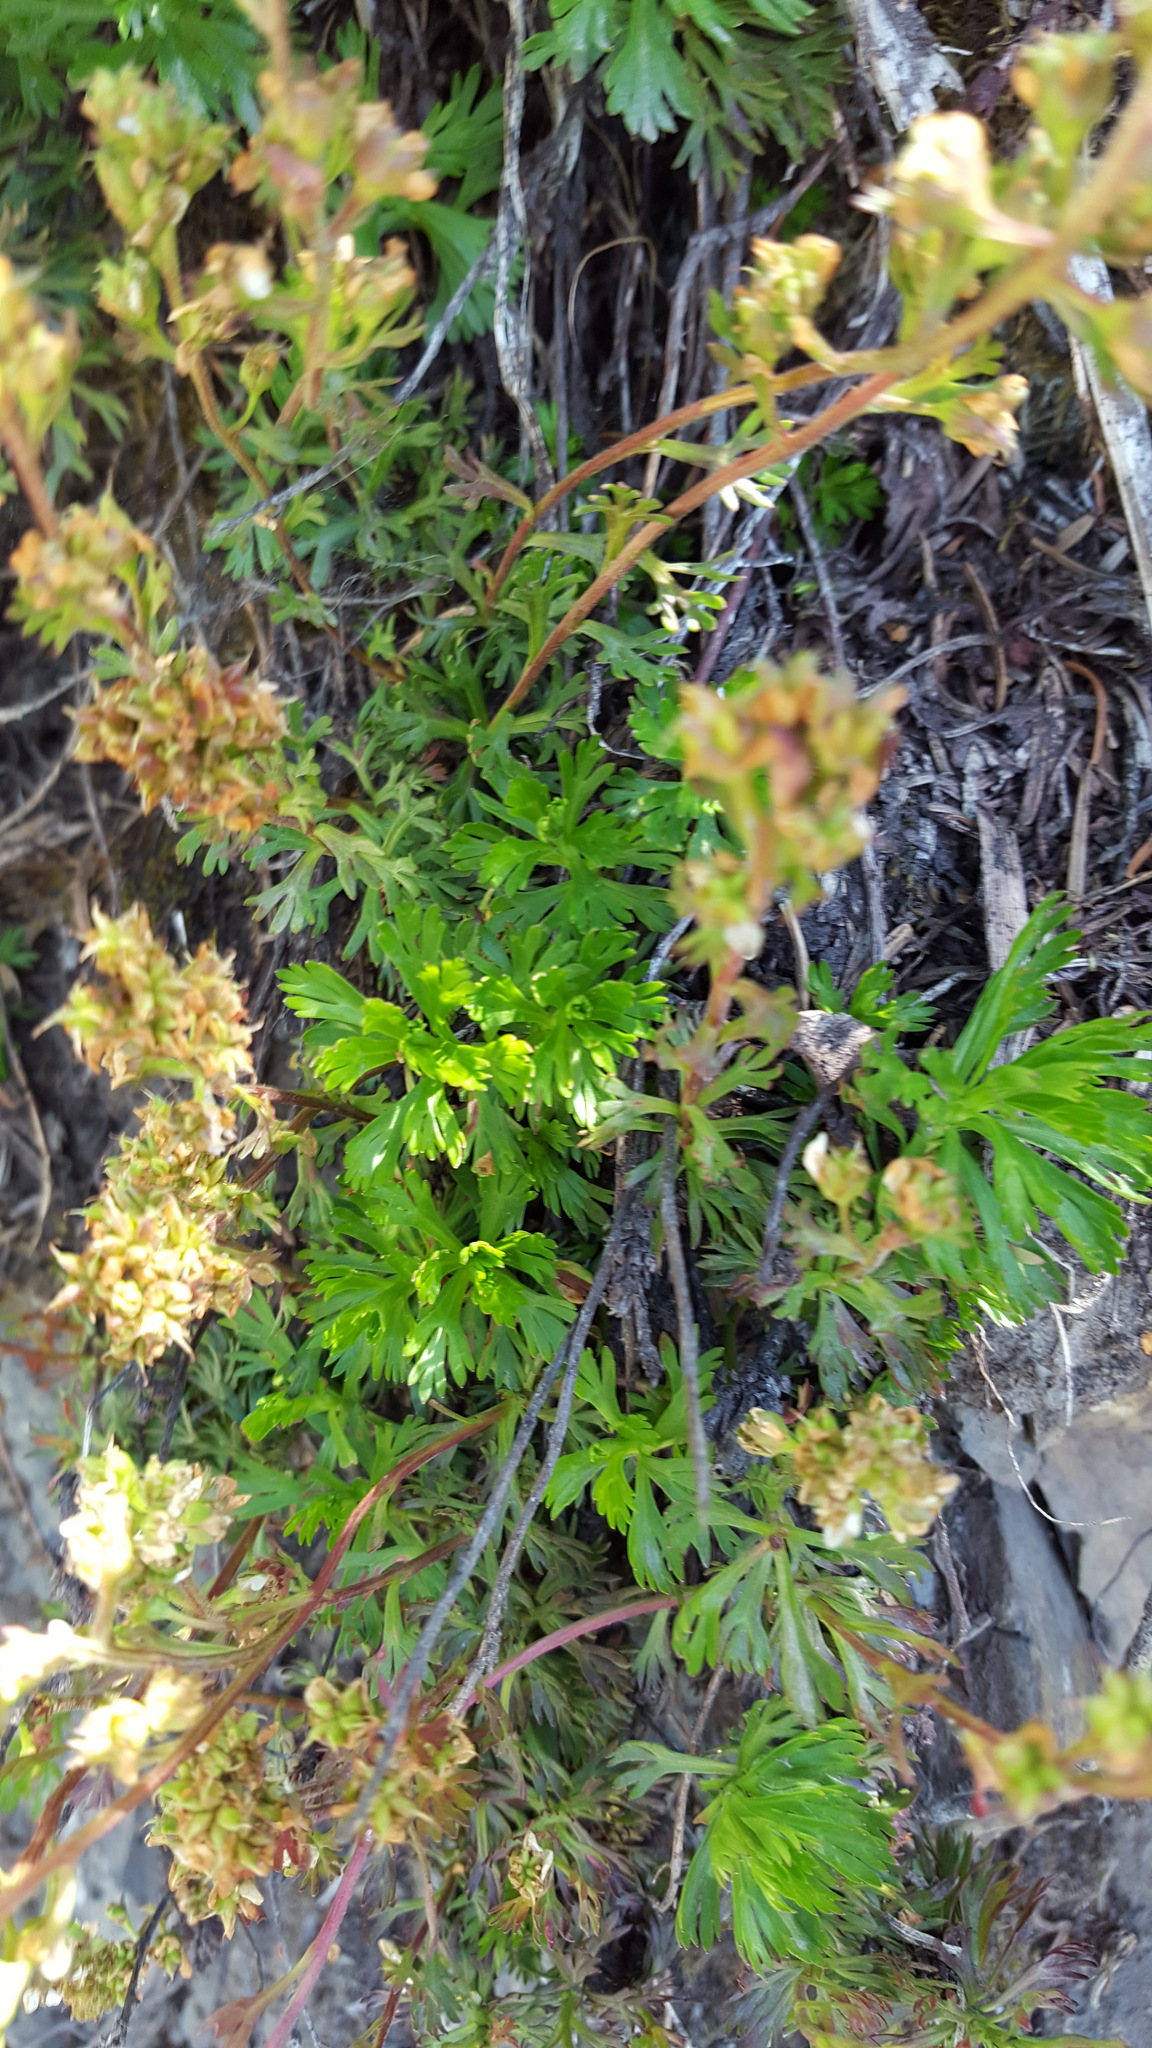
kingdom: Plantae
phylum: Tracheophyta
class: Magnoliopsida
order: Rosales
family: Rosaceae
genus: Luetkea
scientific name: Luetkea pectinata
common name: Partridgefoot
